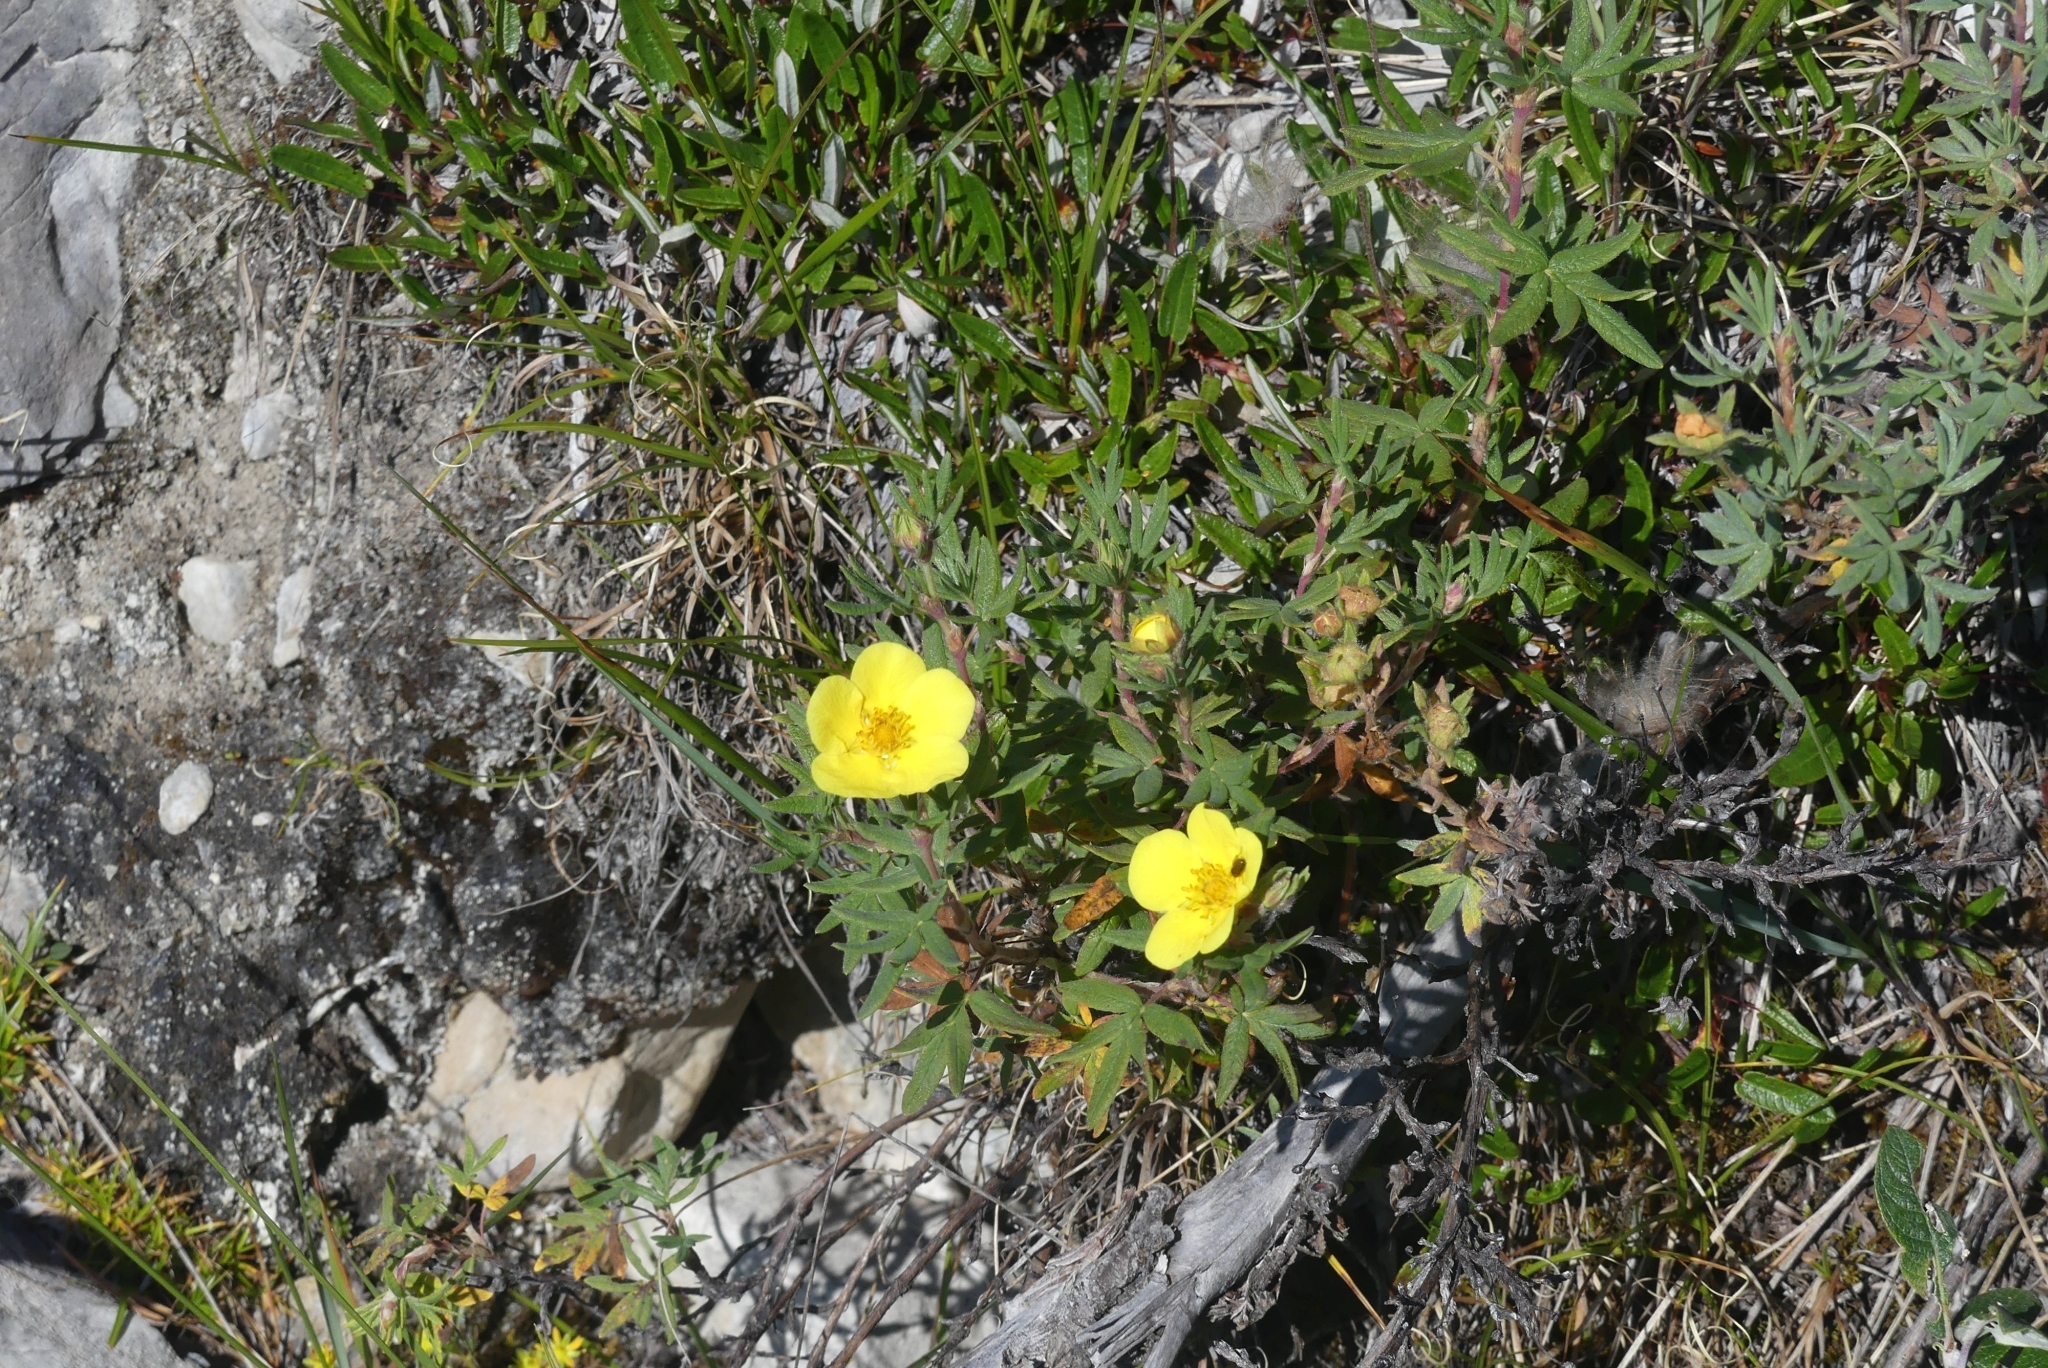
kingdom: Plantae
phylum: Tracheophyta
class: Magnoliopsida
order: Rosales
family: Rosaceae
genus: Dasiphora
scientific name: Dasiphora fruticosa
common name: Shrubby cinquefoil
